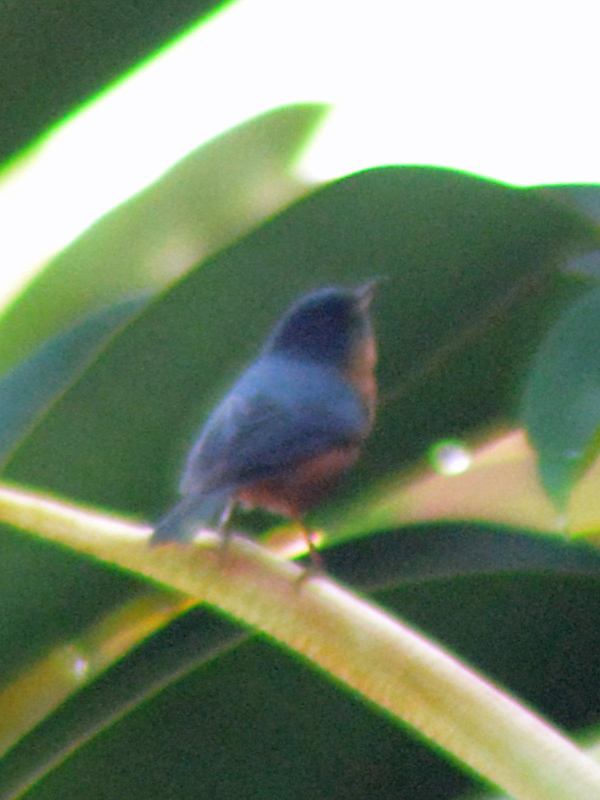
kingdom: Animalia
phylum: Chordata
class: Aves
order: Passeriformes
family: Thraupidae
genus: Diglossa
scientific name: Diglossa baritula
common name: Cinnamon-bellied flowerpiercer
